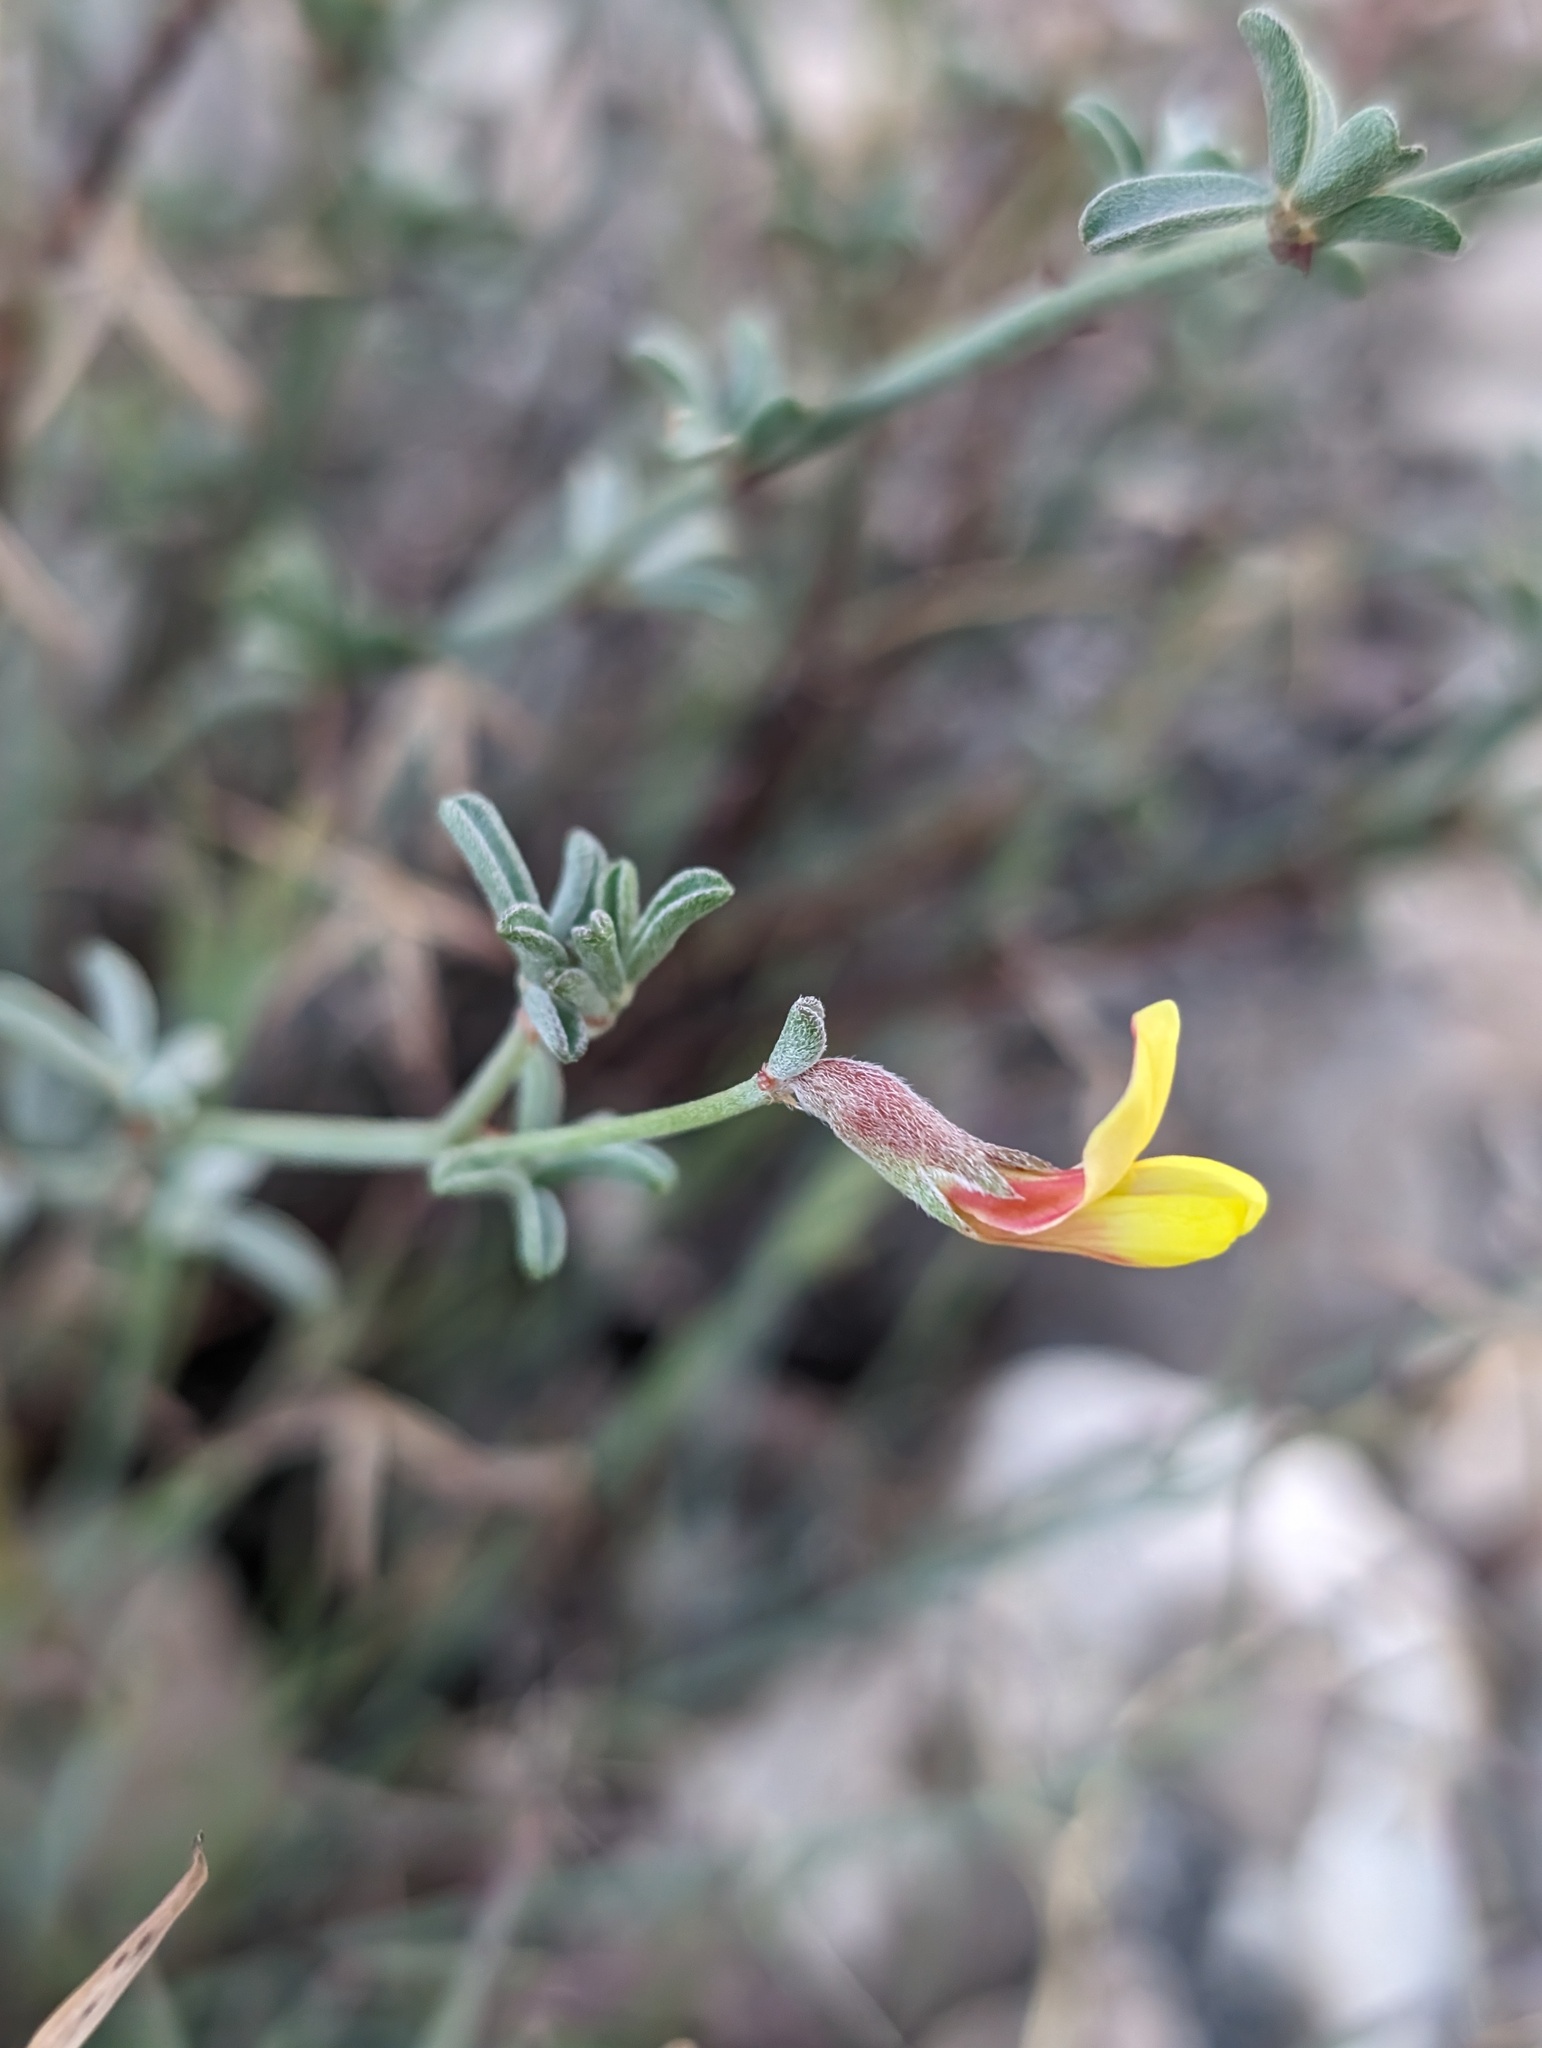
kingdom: Plantae
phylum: Tracheophyta
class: Magnoliopsida
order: Fabales
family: Fabaceae
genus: Acmispon
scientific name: Acmispon rigidus
